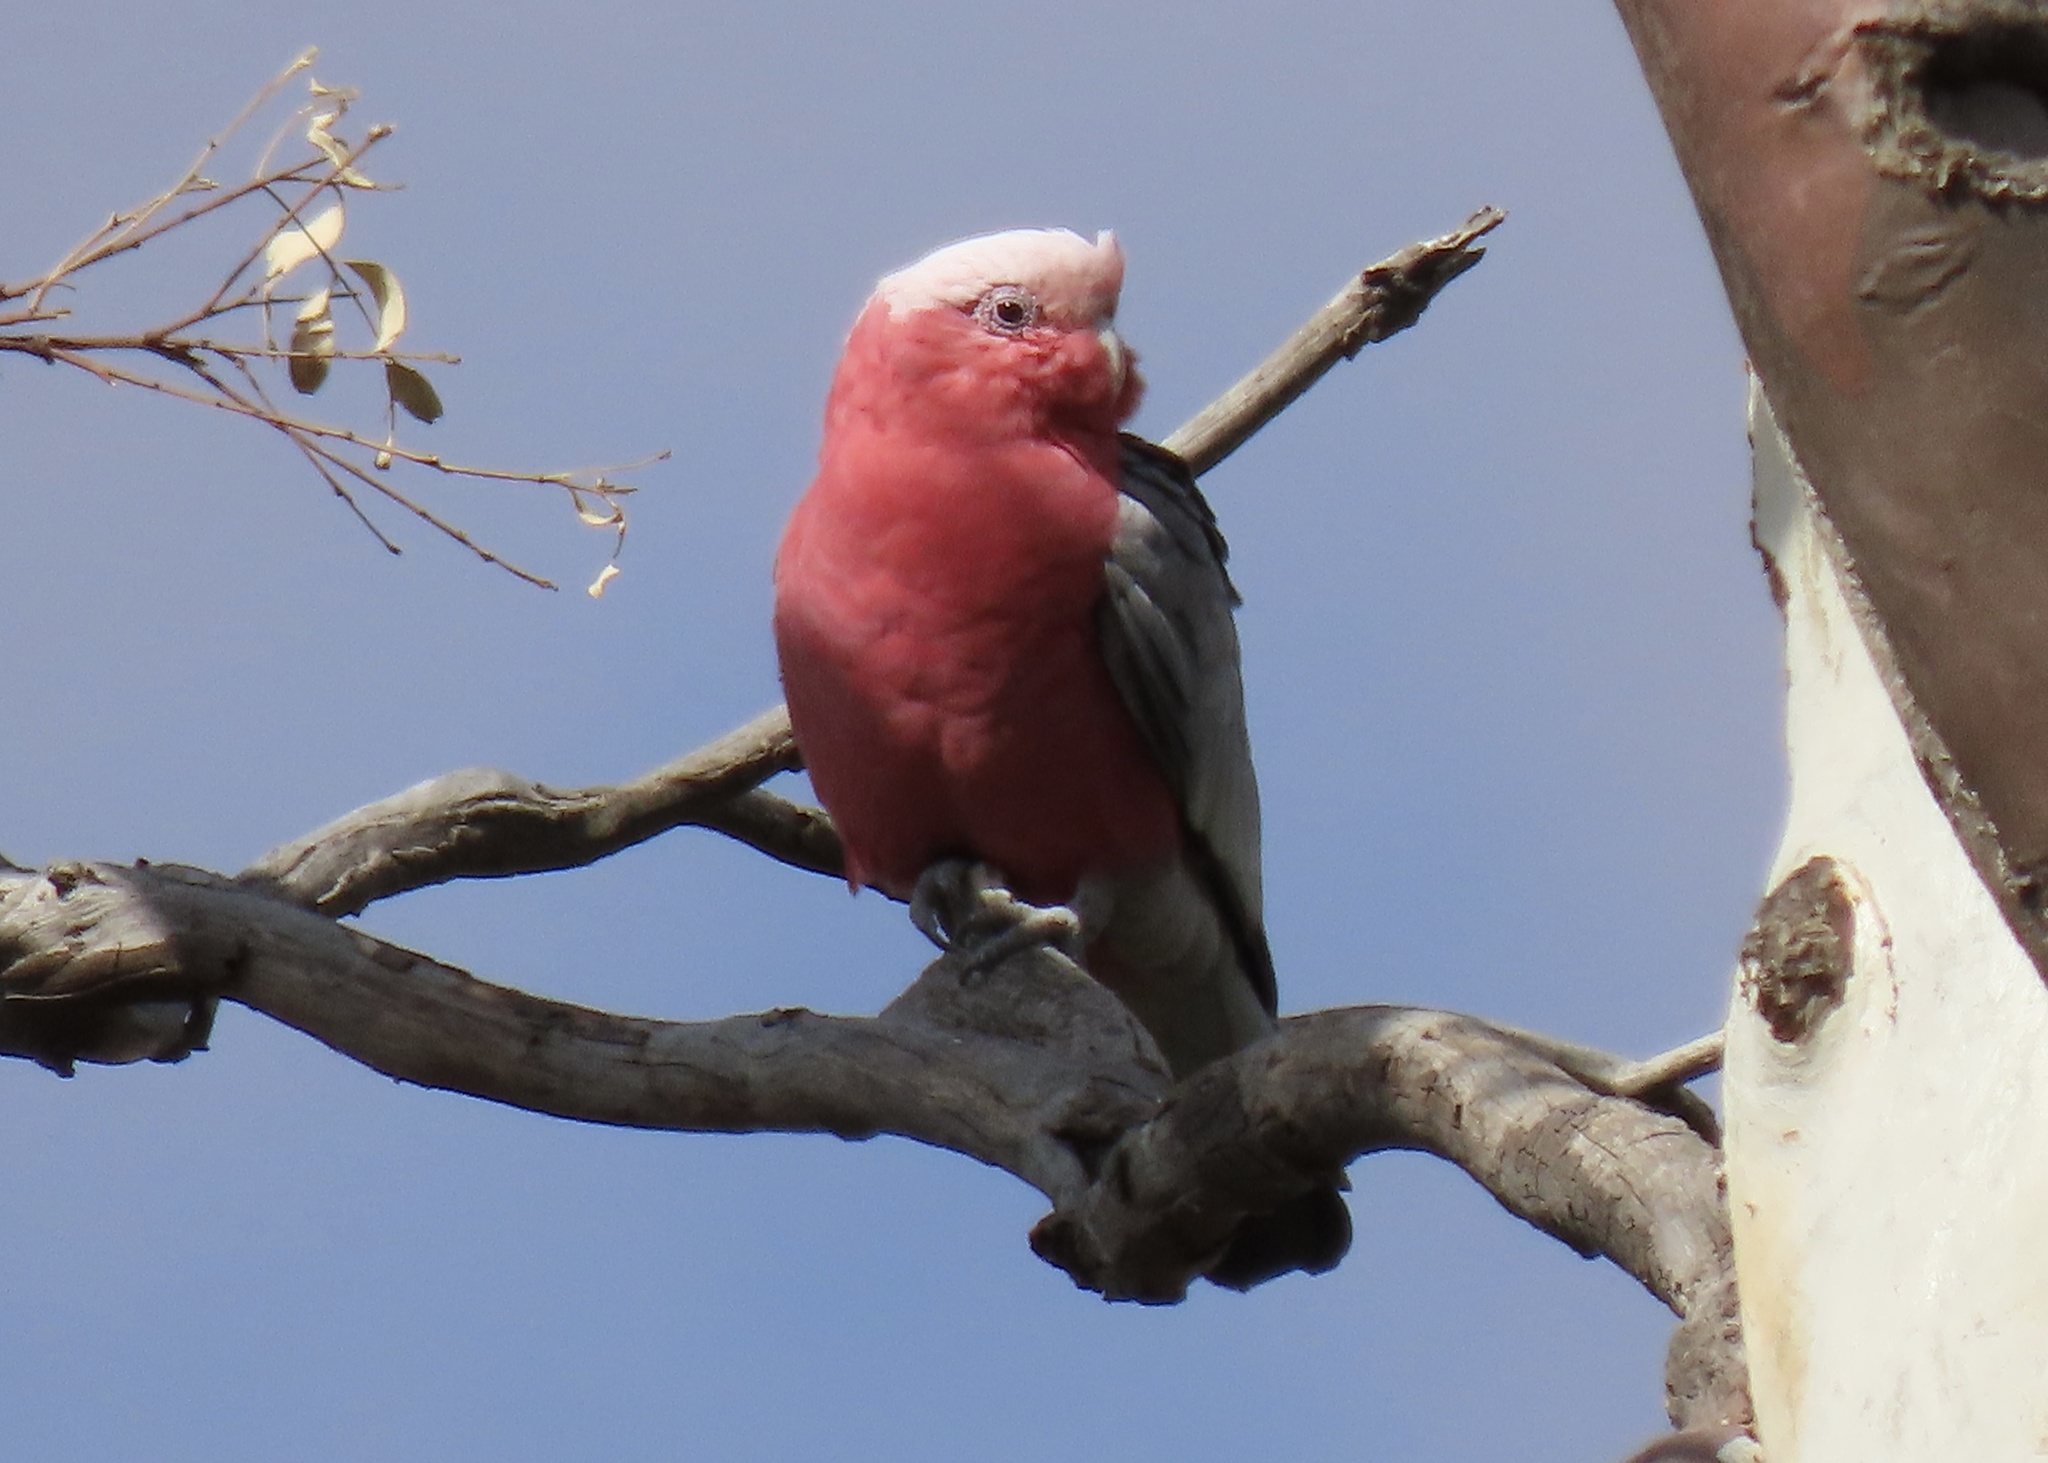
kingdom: Animalia
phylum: Chordata
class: Aves
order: Psittaciformes
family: Psittacidae
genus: Eolophus
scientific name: Eolophus roseicapilla
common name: Galah
